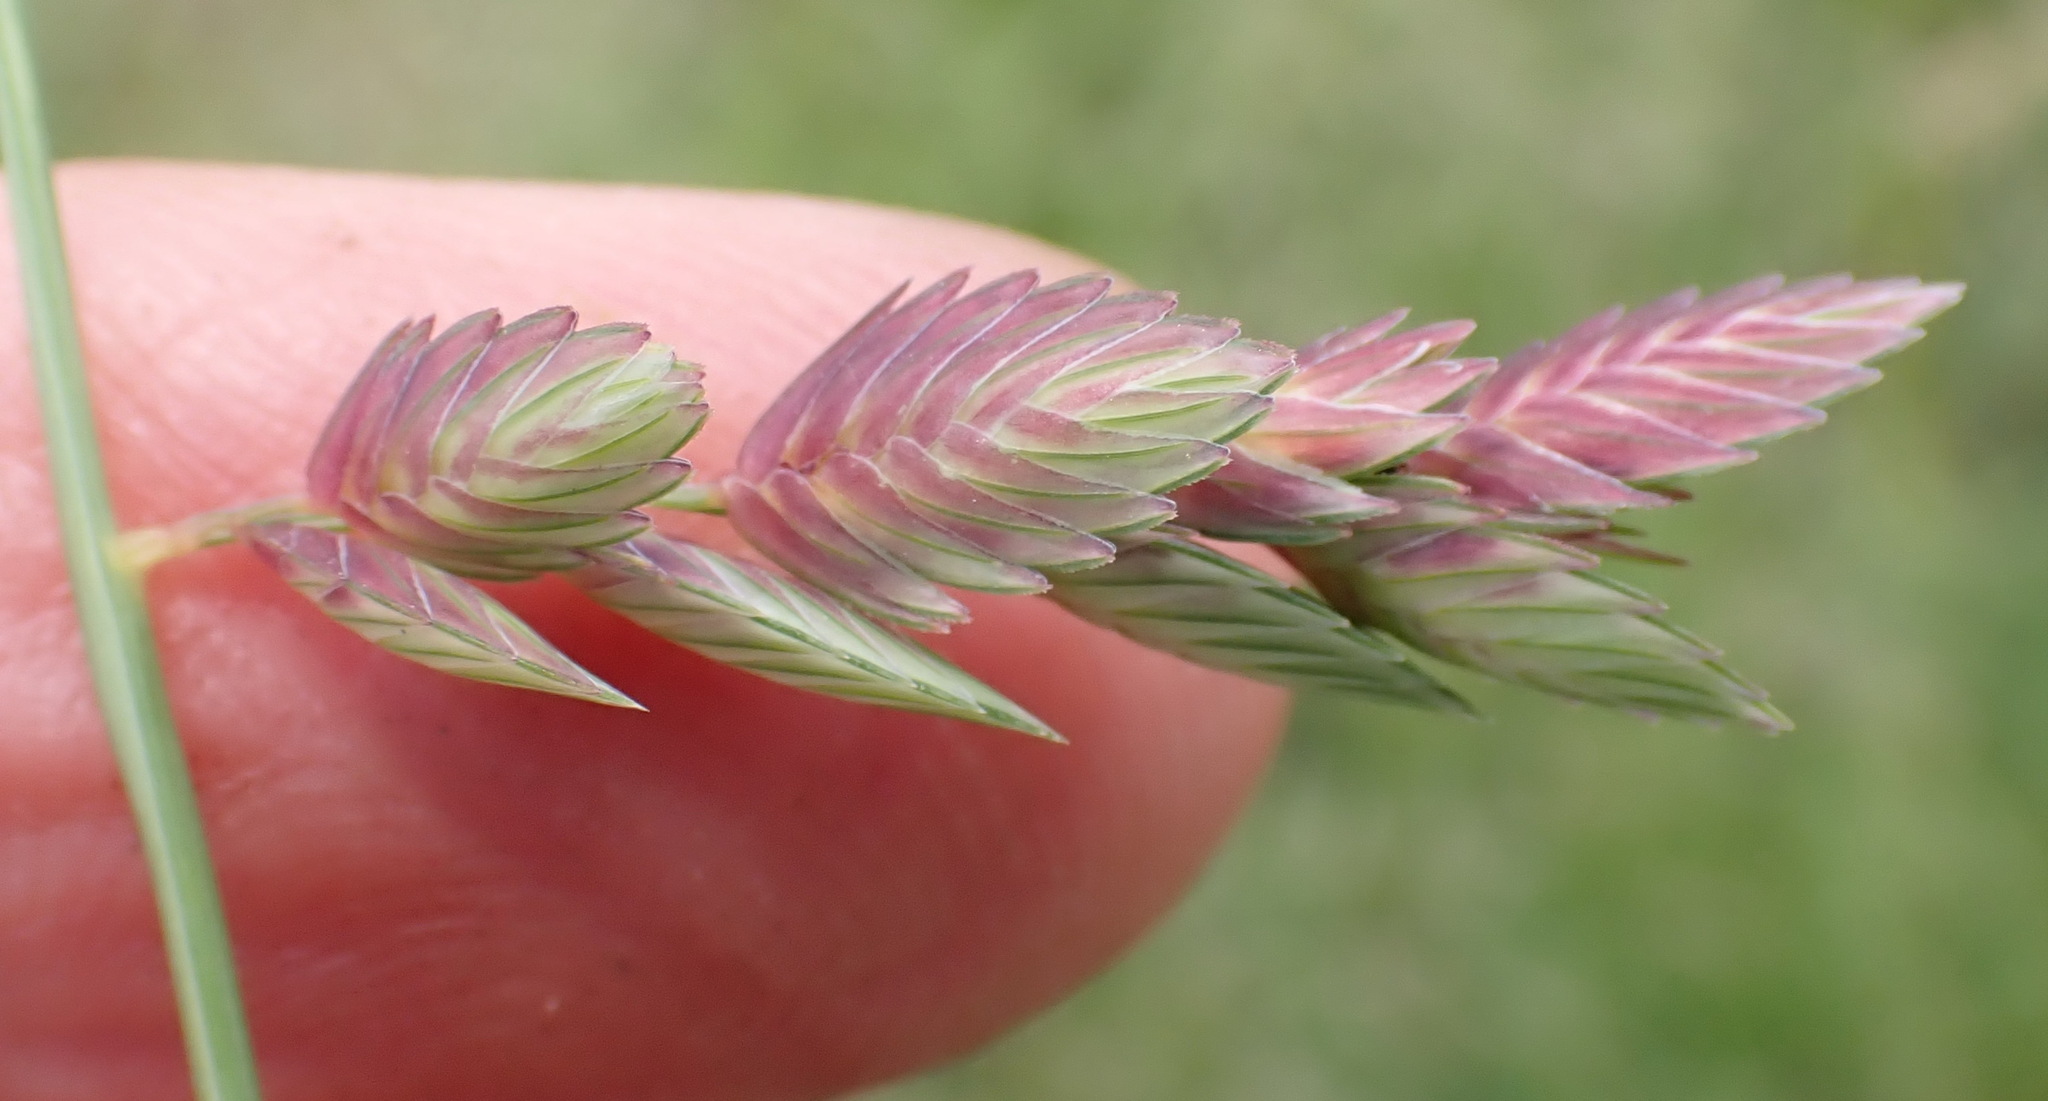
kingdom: Plantae
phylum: Tracheophyta
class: Liliopsida
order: Poales
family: Poaceae
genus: Eragrostis
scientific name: Eragrostis superba
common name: Wilman lovegrass
